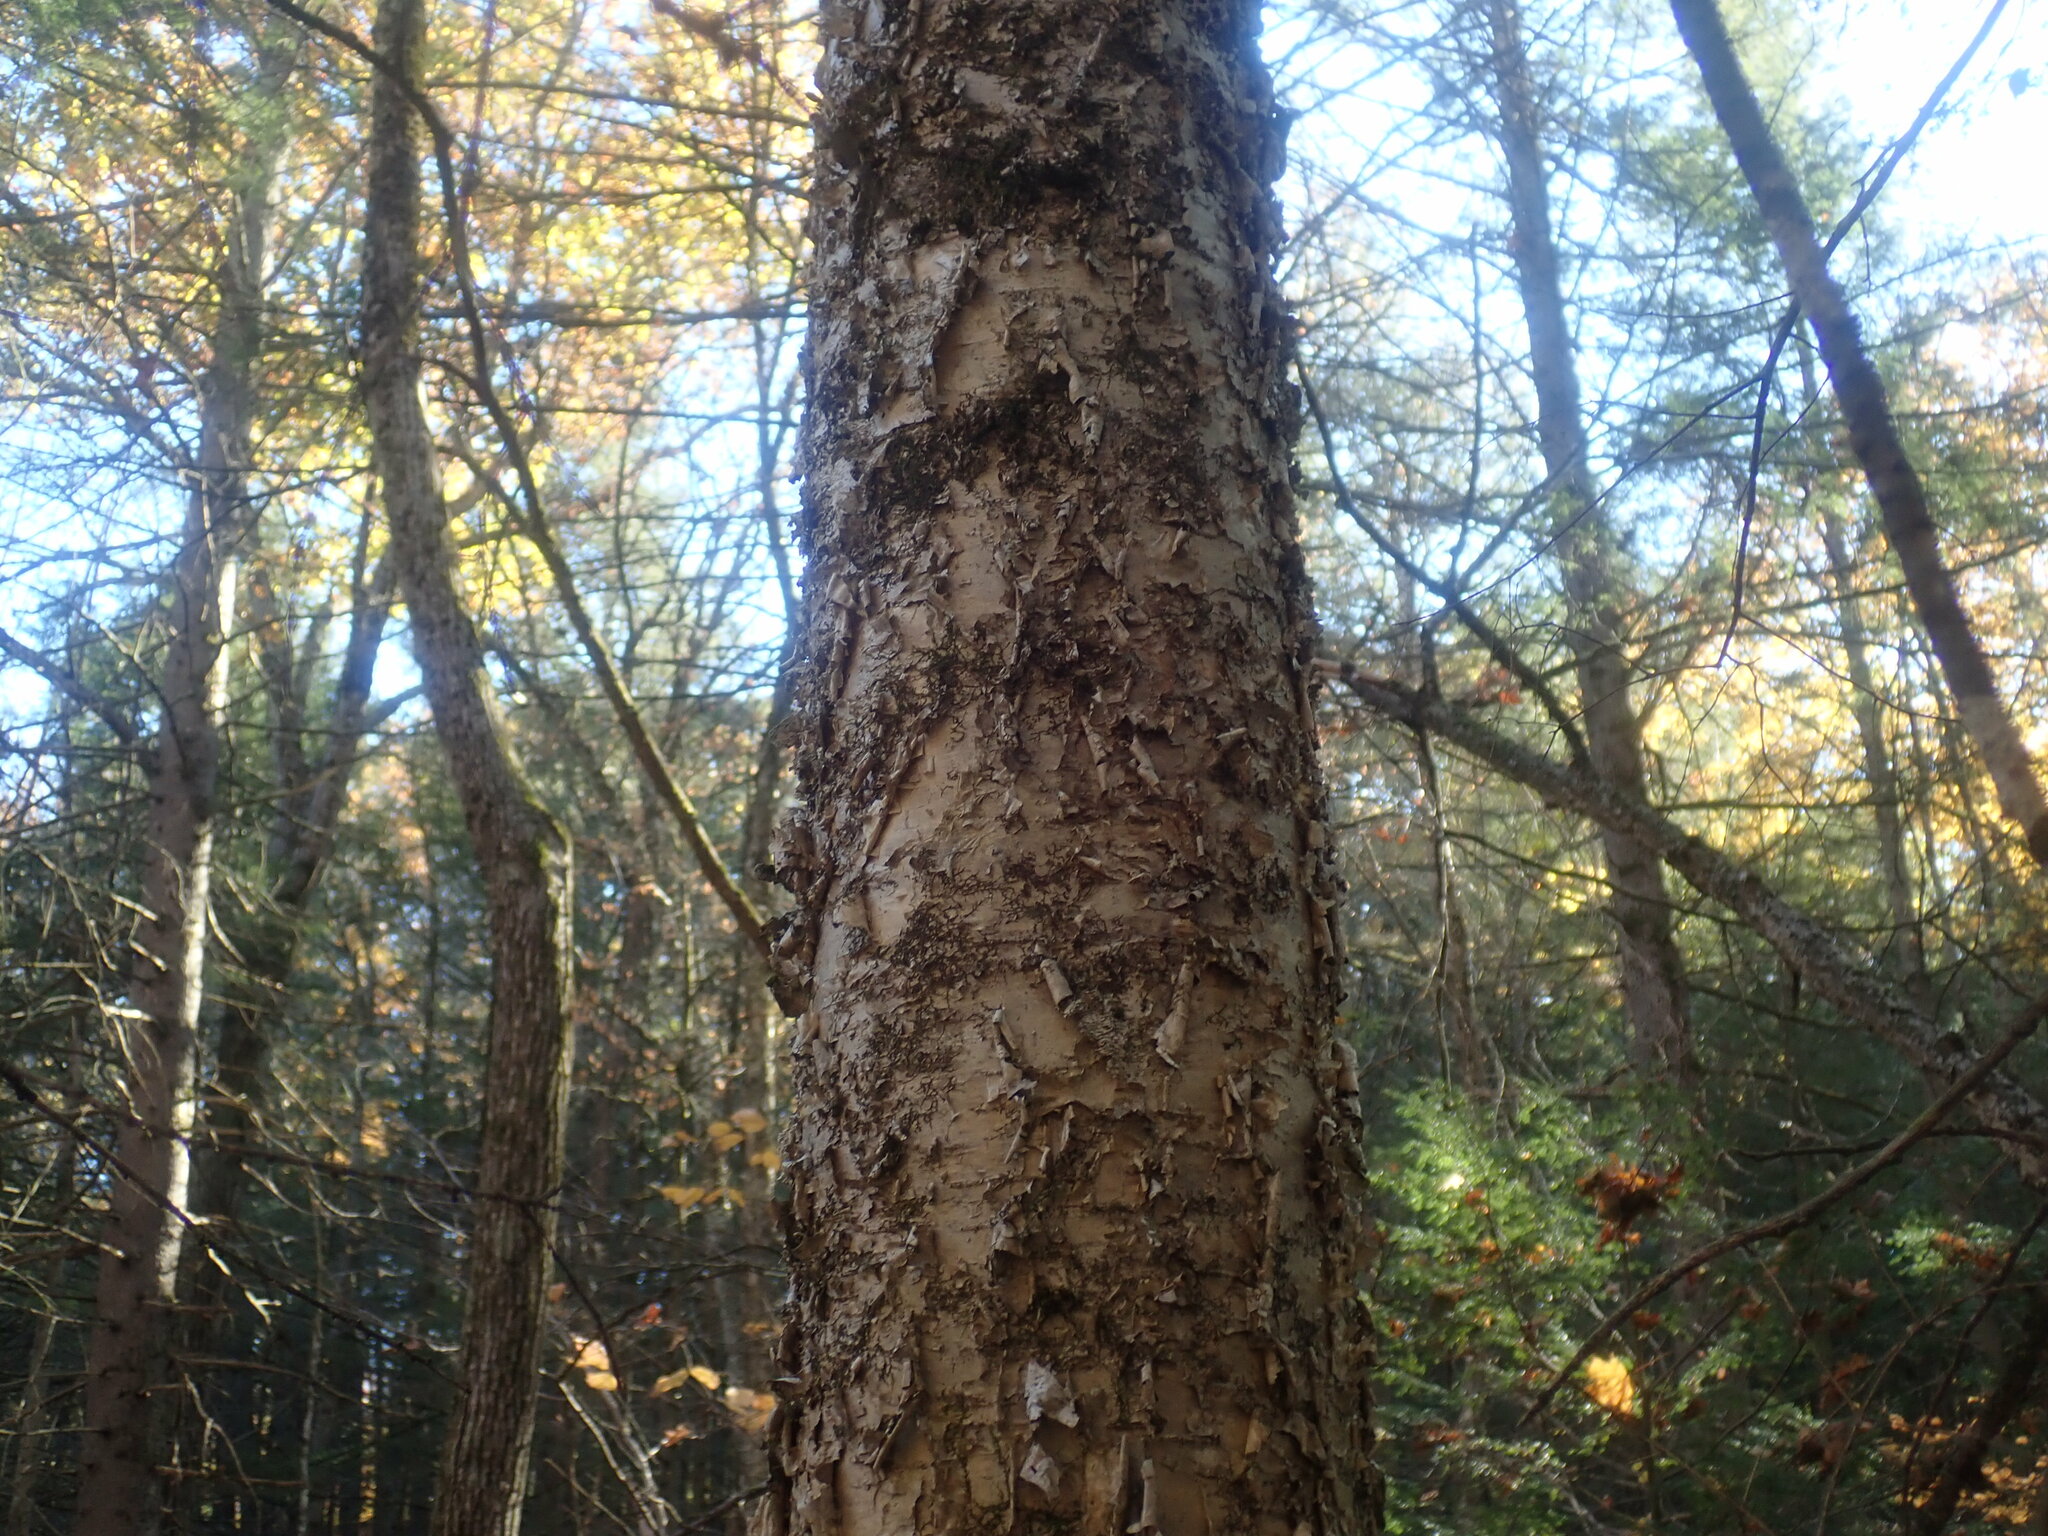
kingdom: Plantae
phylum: Tracheophyta
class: Magnoliopsida
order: Fagales
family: Betulaceae
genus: Betula
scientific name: Betula alleghaniensis
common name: Yellow birch
